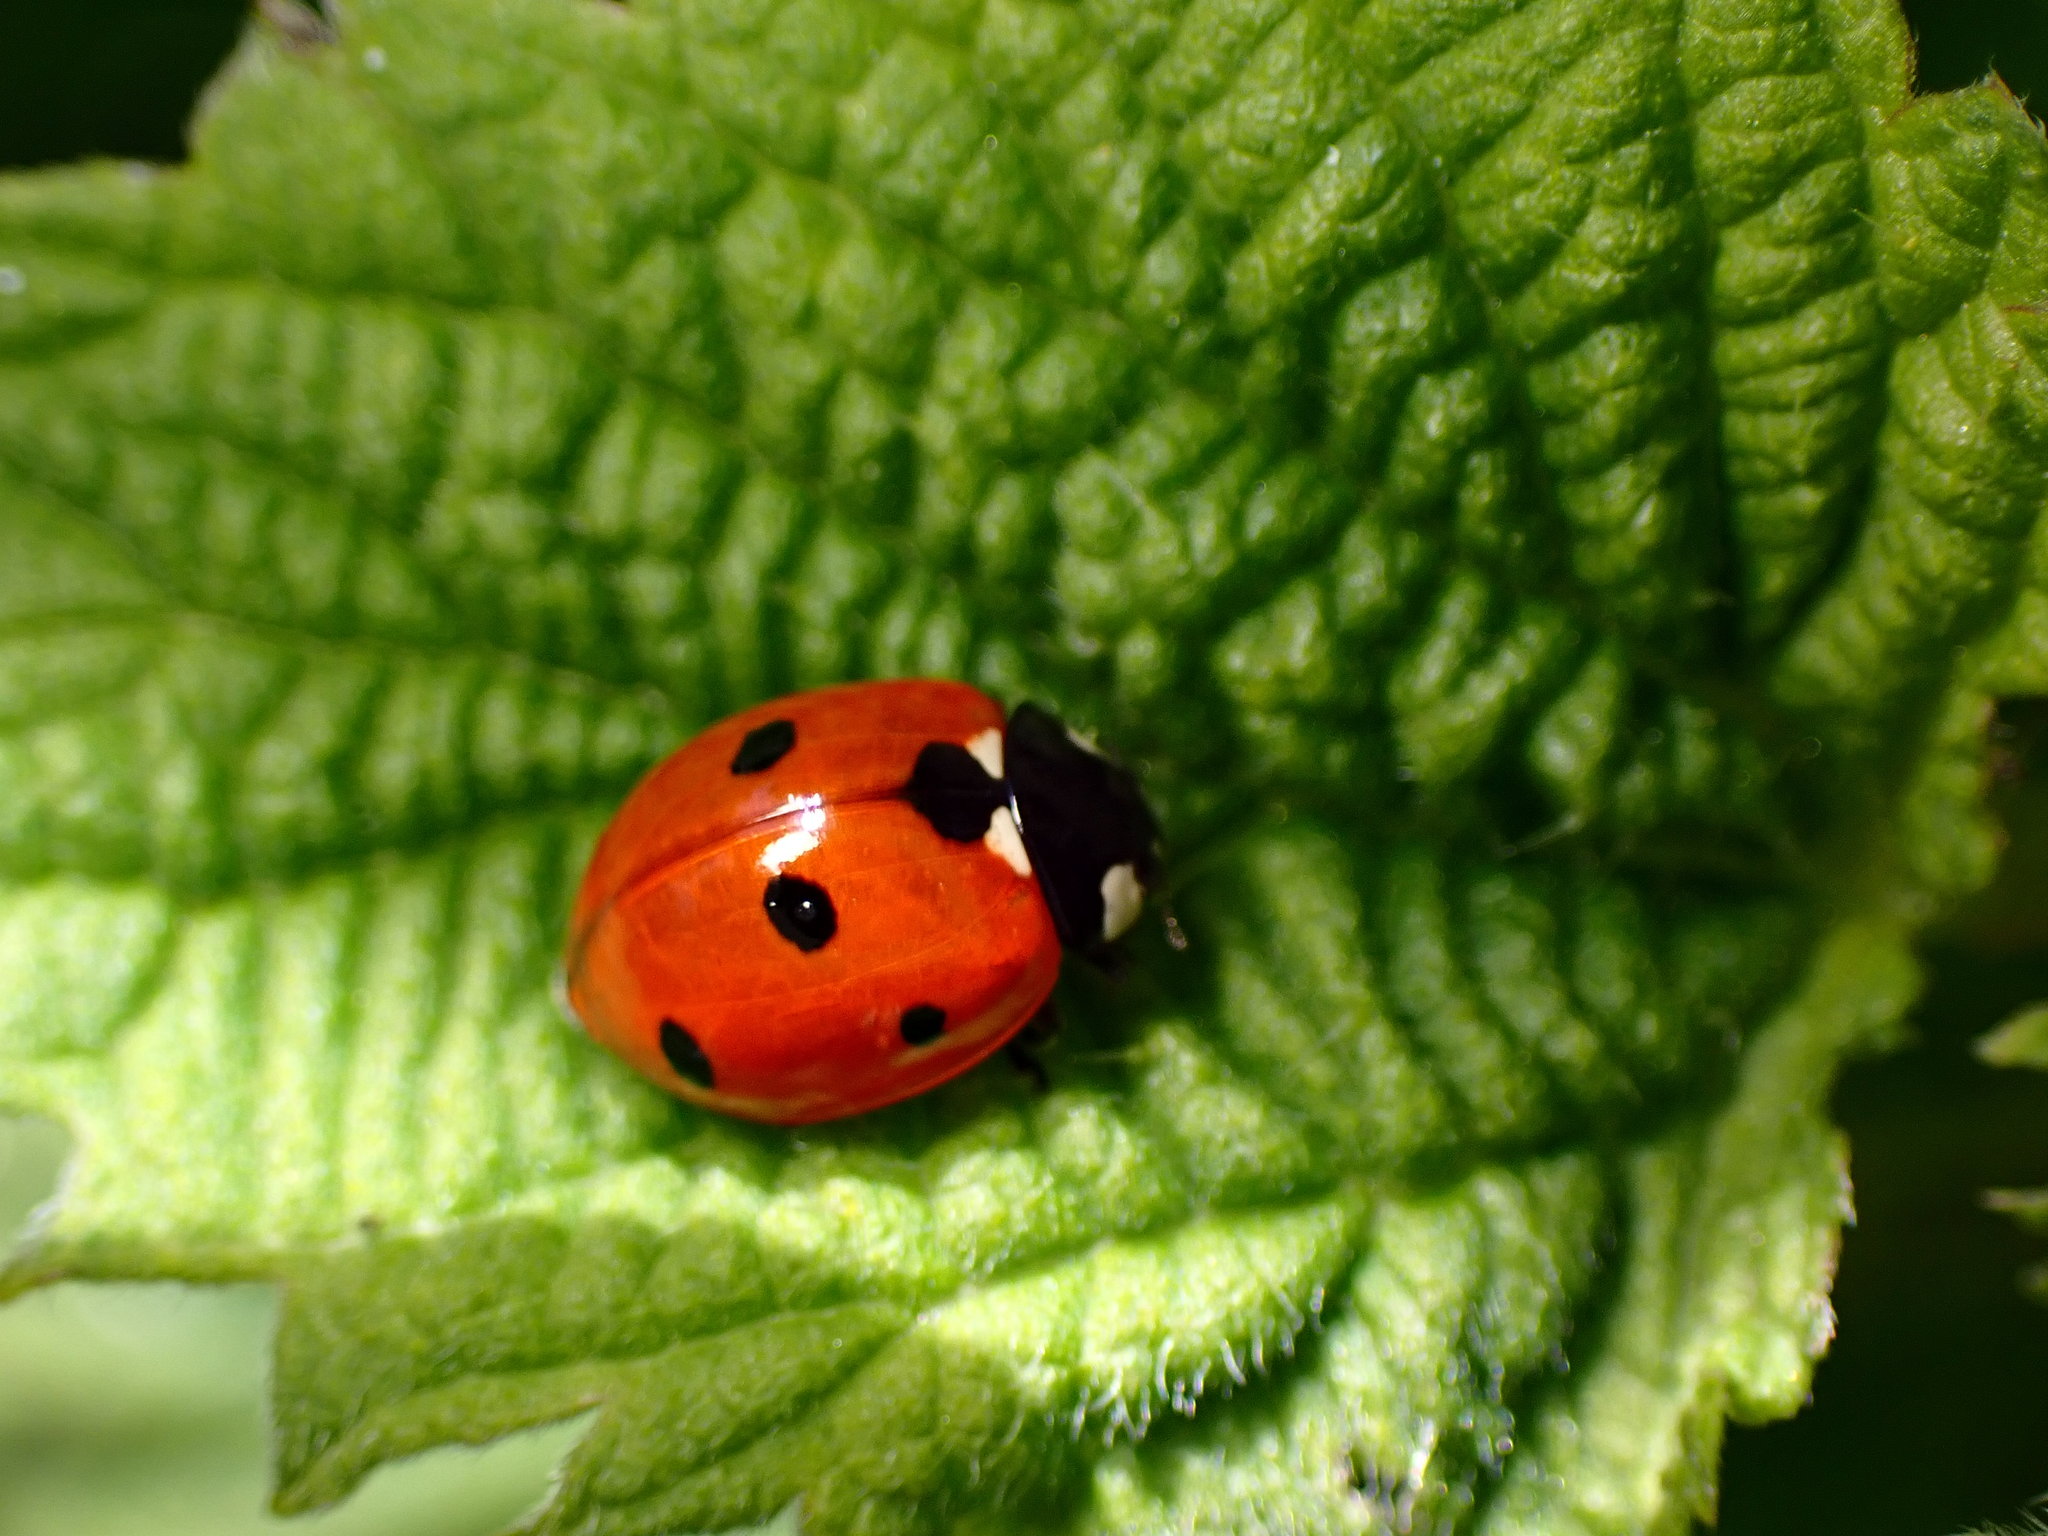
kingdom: Animalia
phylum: Arthropoda
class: Insecta
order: Coleoptera
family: Coccinellidae
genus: Coccinella
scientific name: Coccinella septempunctata
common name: Sevenspotted lady beetle
